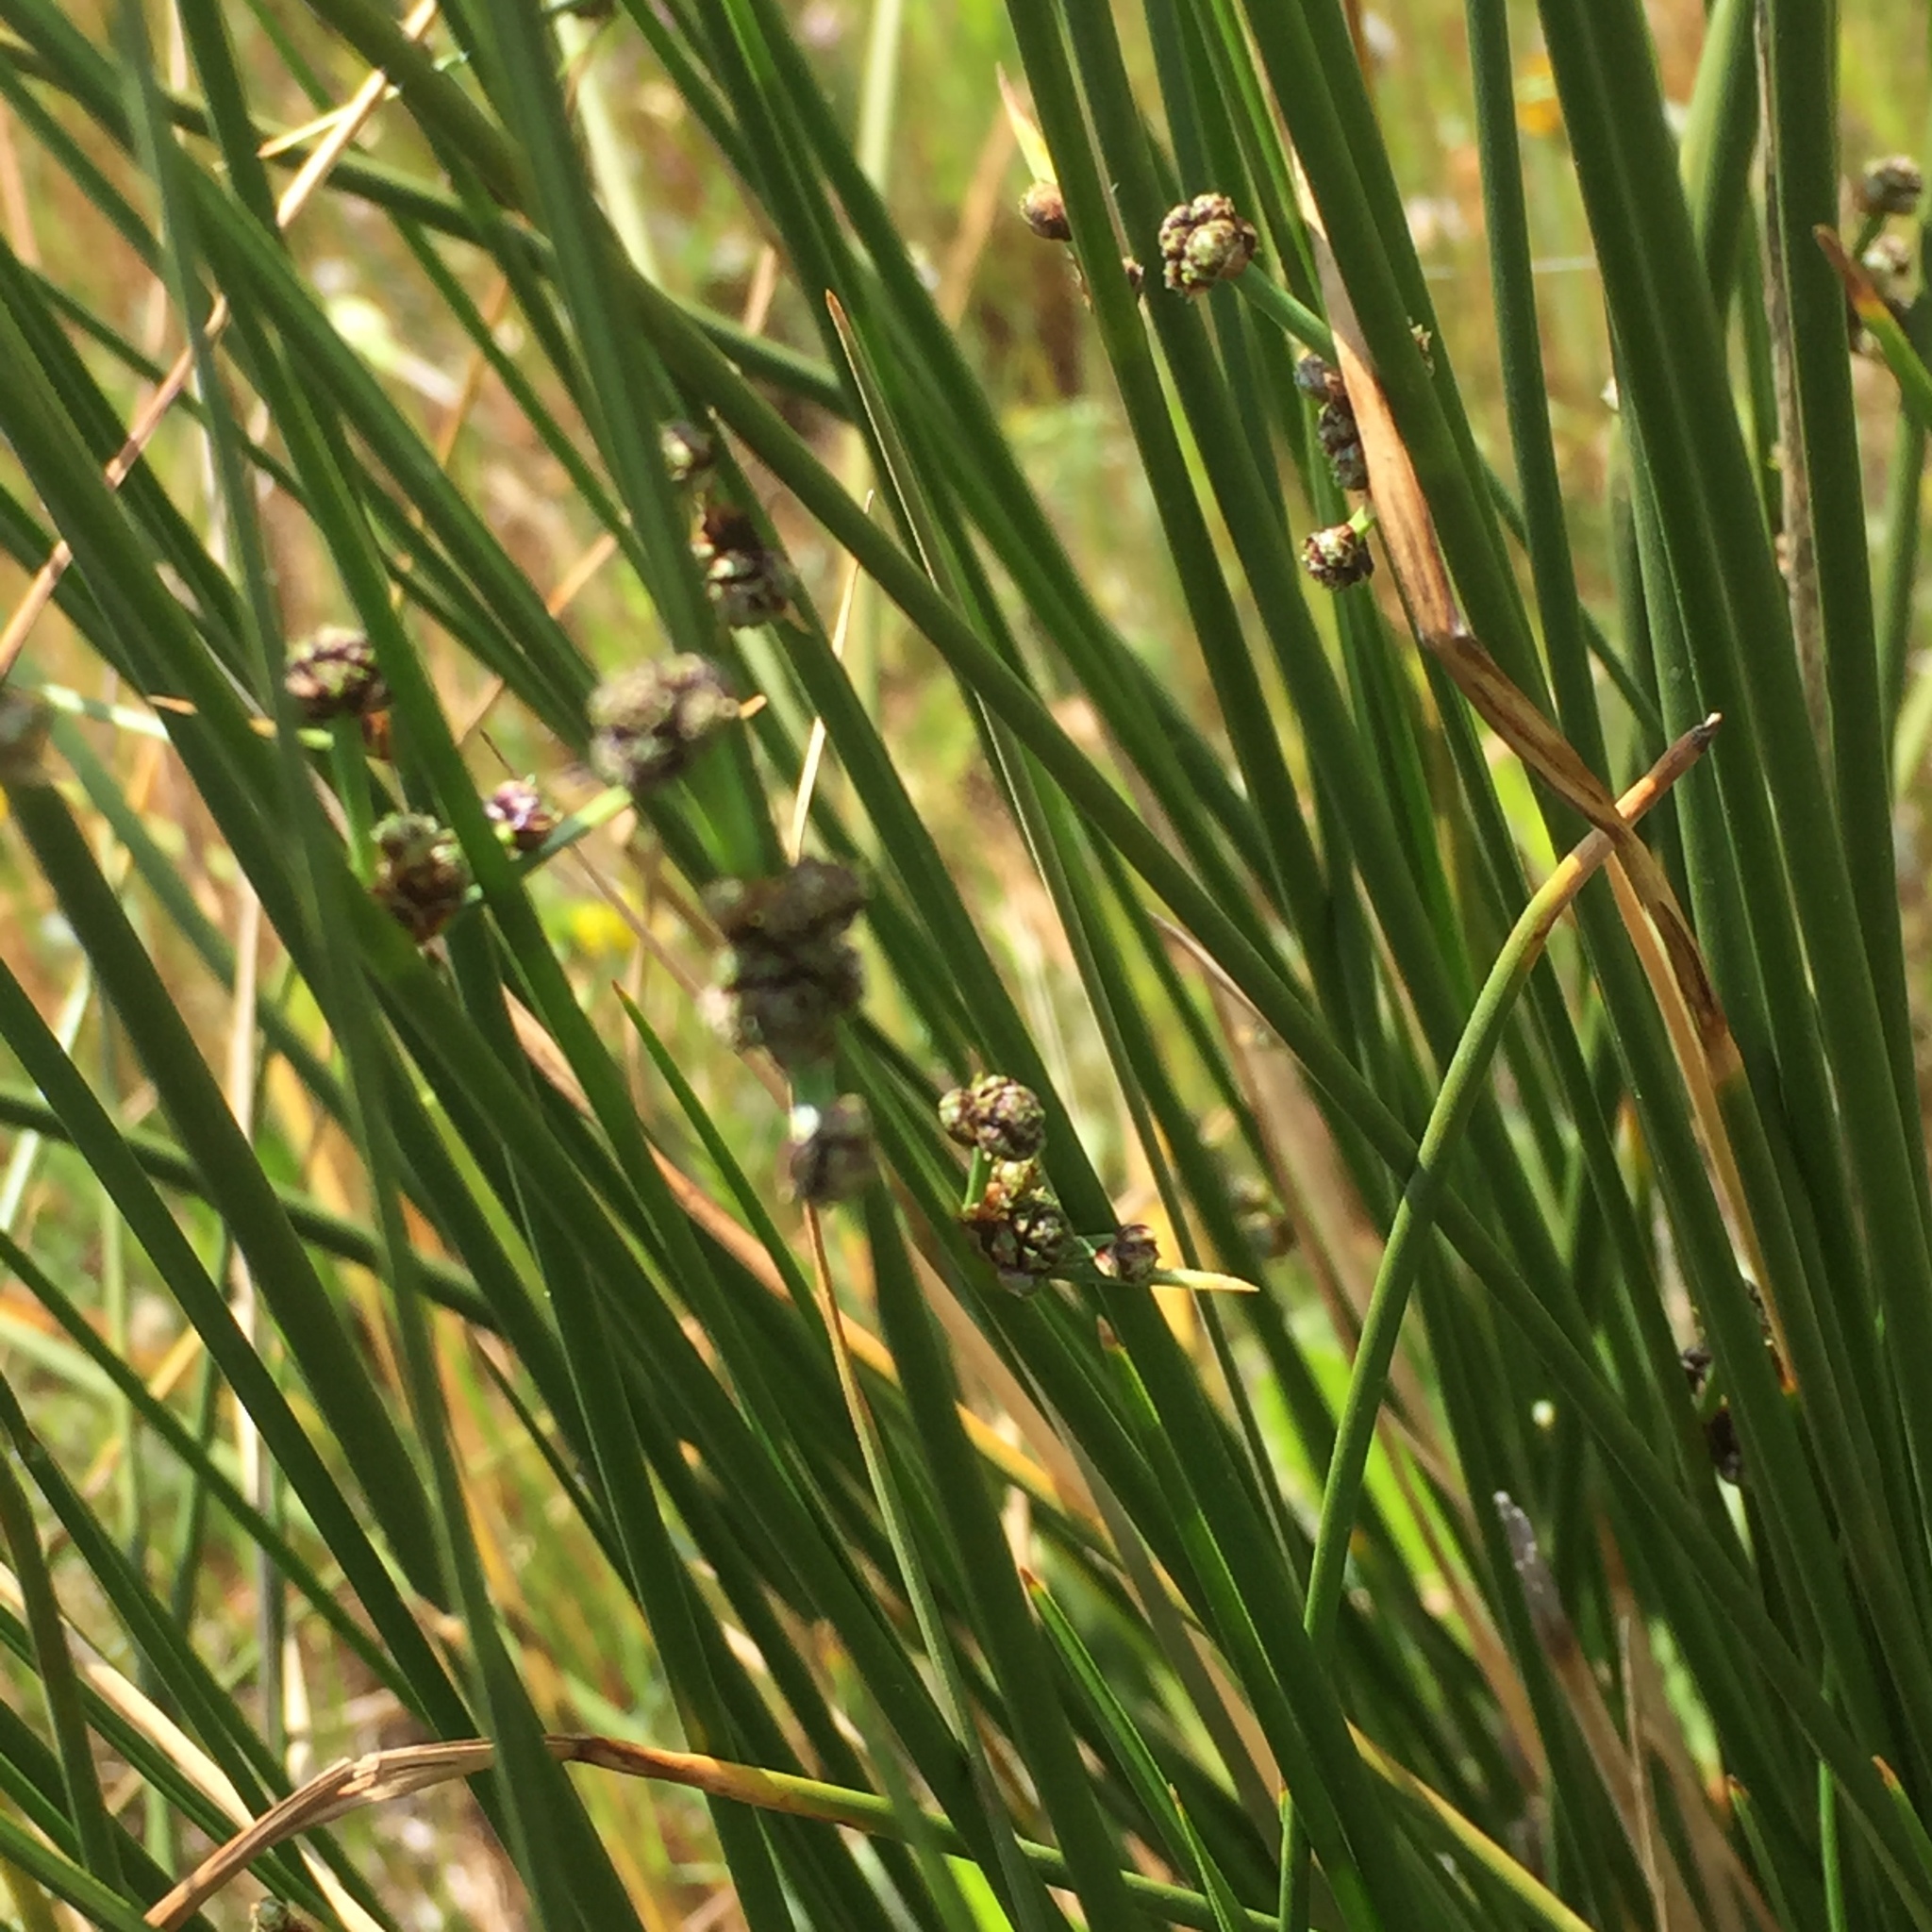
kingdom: Plantae
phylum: Tracheophyta
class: Liliopsida
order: Poales
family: Cyperaceae
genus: Scirpoides
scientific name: Scirpoides holoschoenus
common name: Round-headed club-rush
